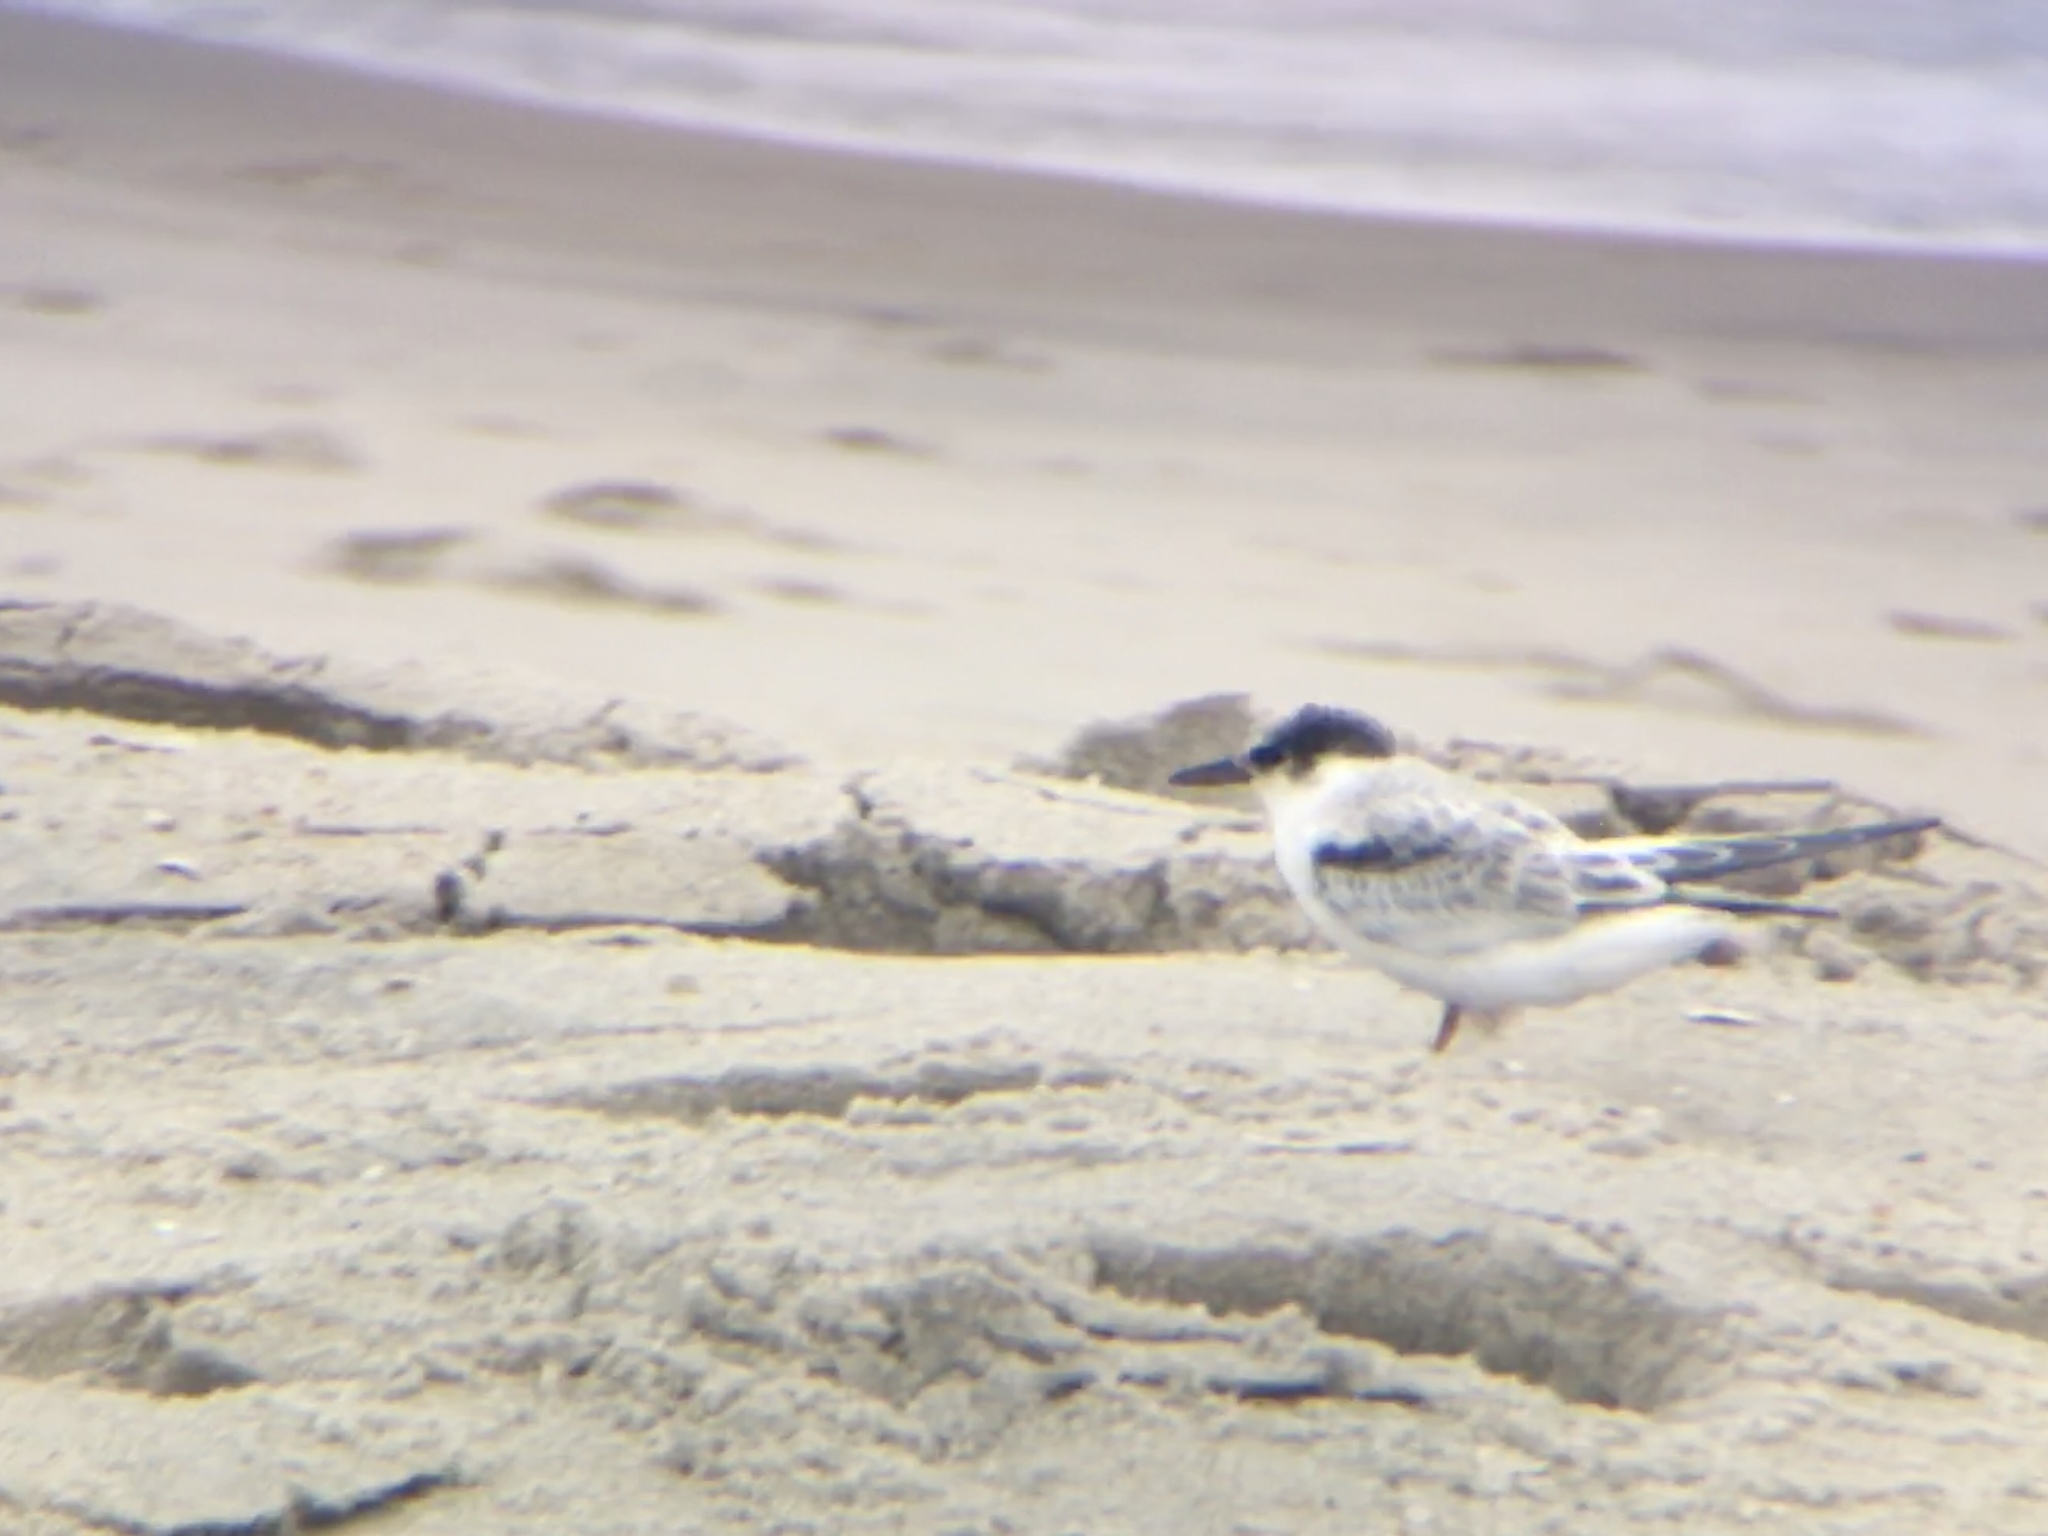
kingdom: Animalia
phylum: Chordata
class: Aves
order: Charadriiformes
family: Laridae
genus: Sterna
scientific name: Sterna hirundo
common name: Common tern
